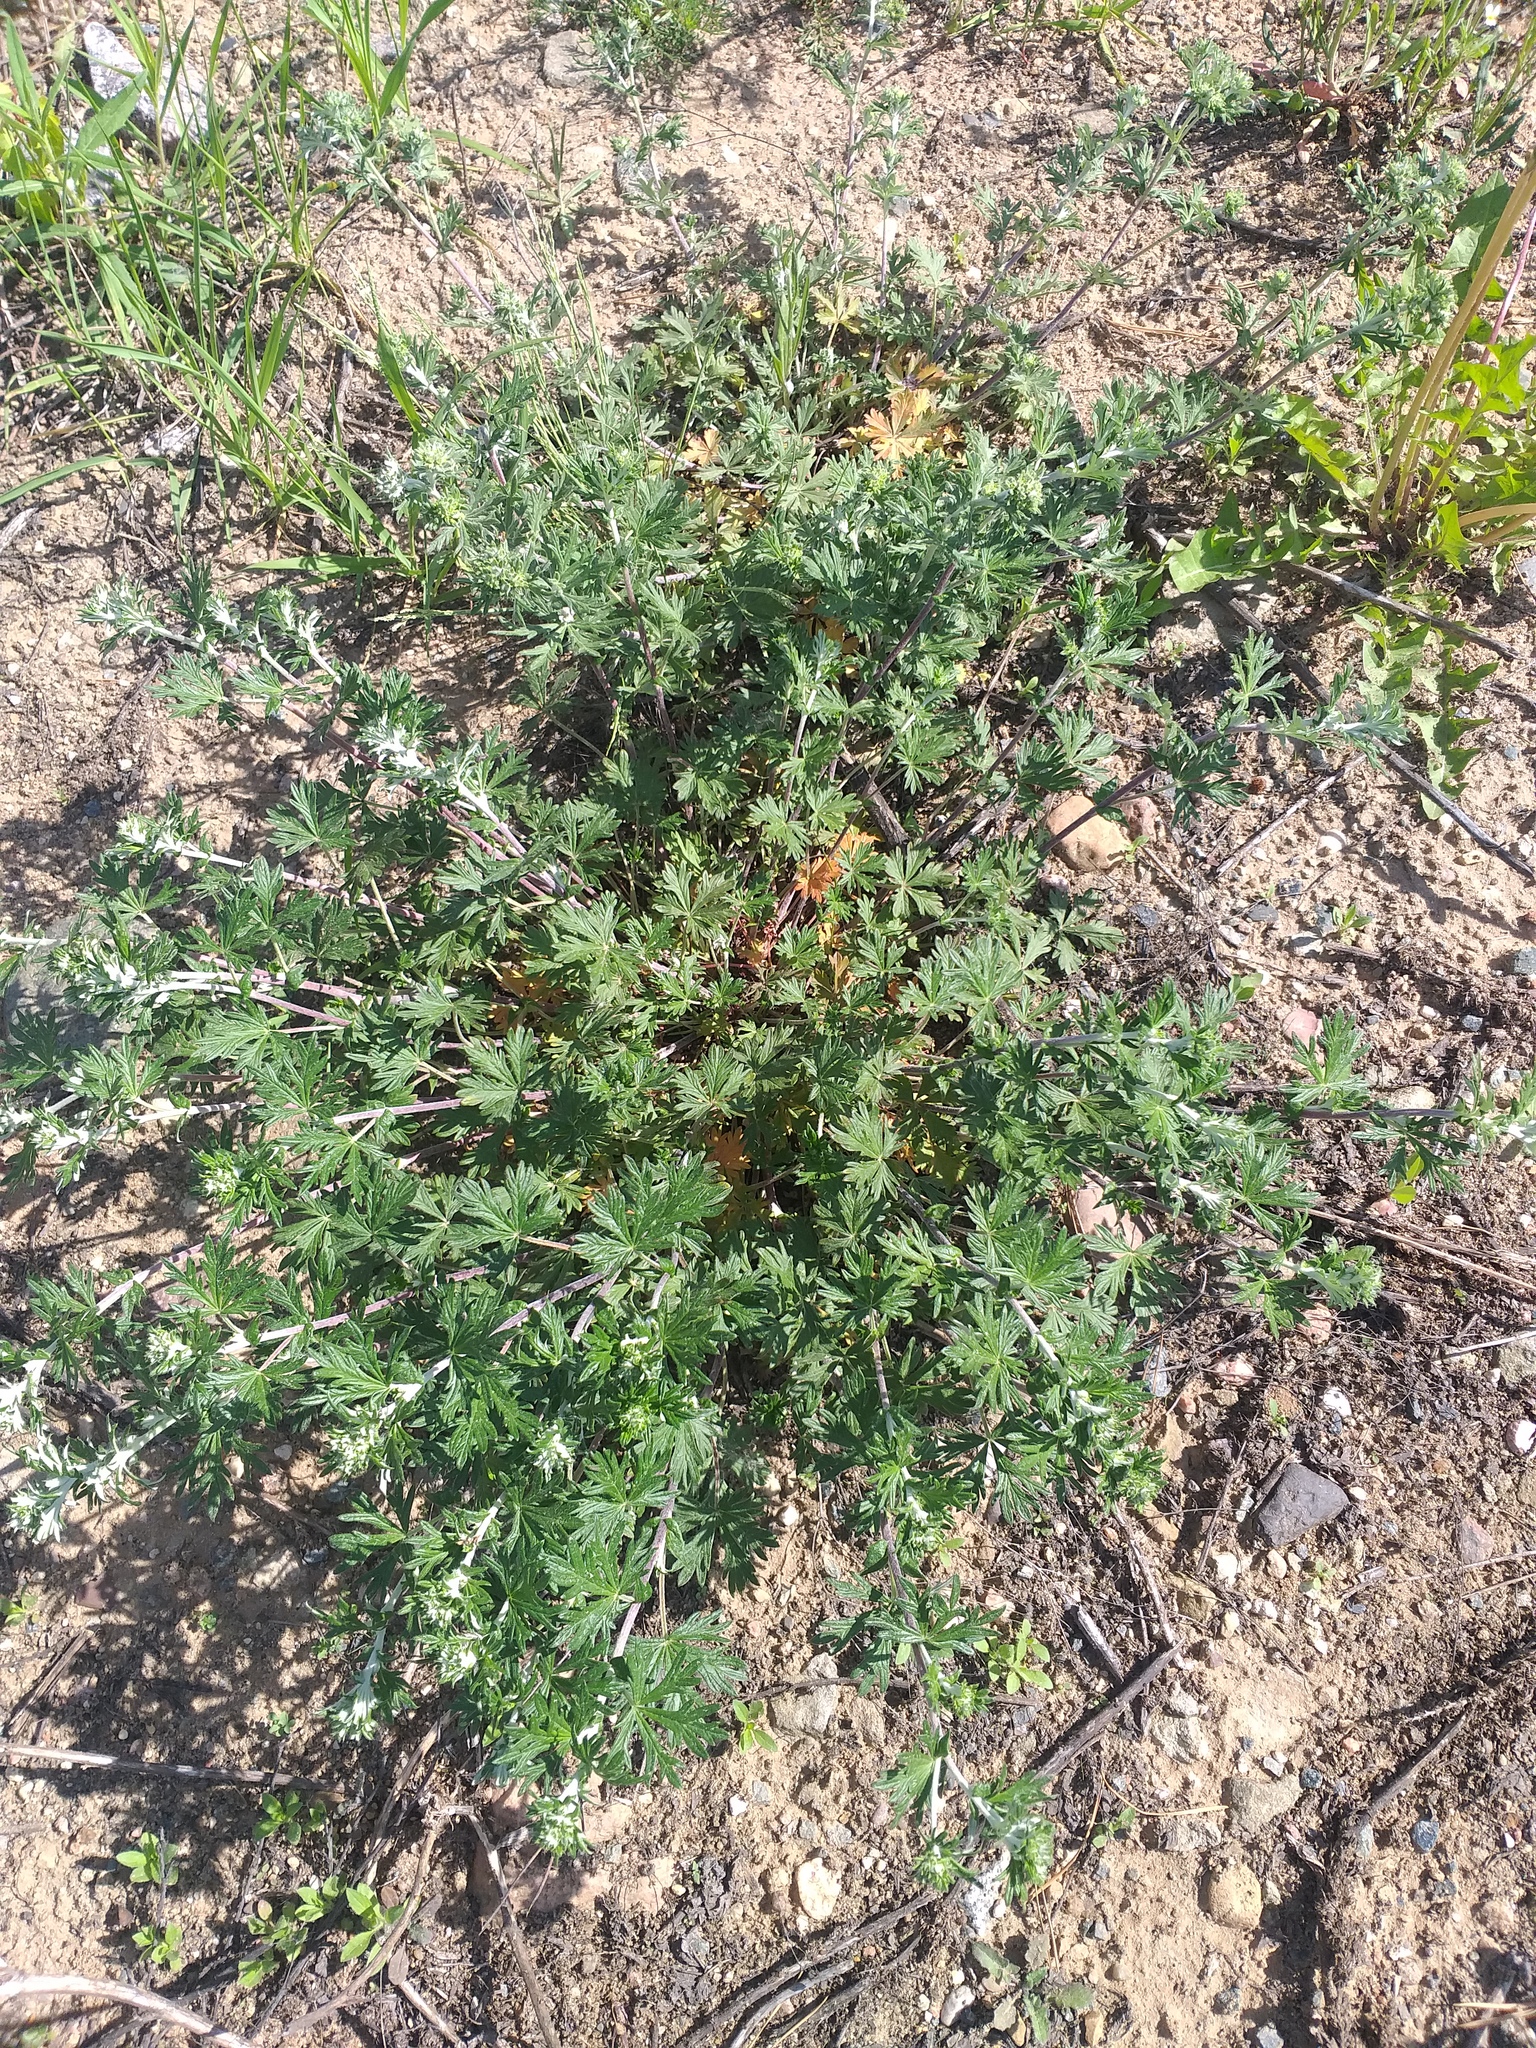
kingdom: Plantae
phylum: Tracheophyta
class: Magnoliopsida
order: Rosales
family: Rosaceae
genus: Potentilla
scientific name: Potentilla argentea
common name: Hoary cinquefoil
